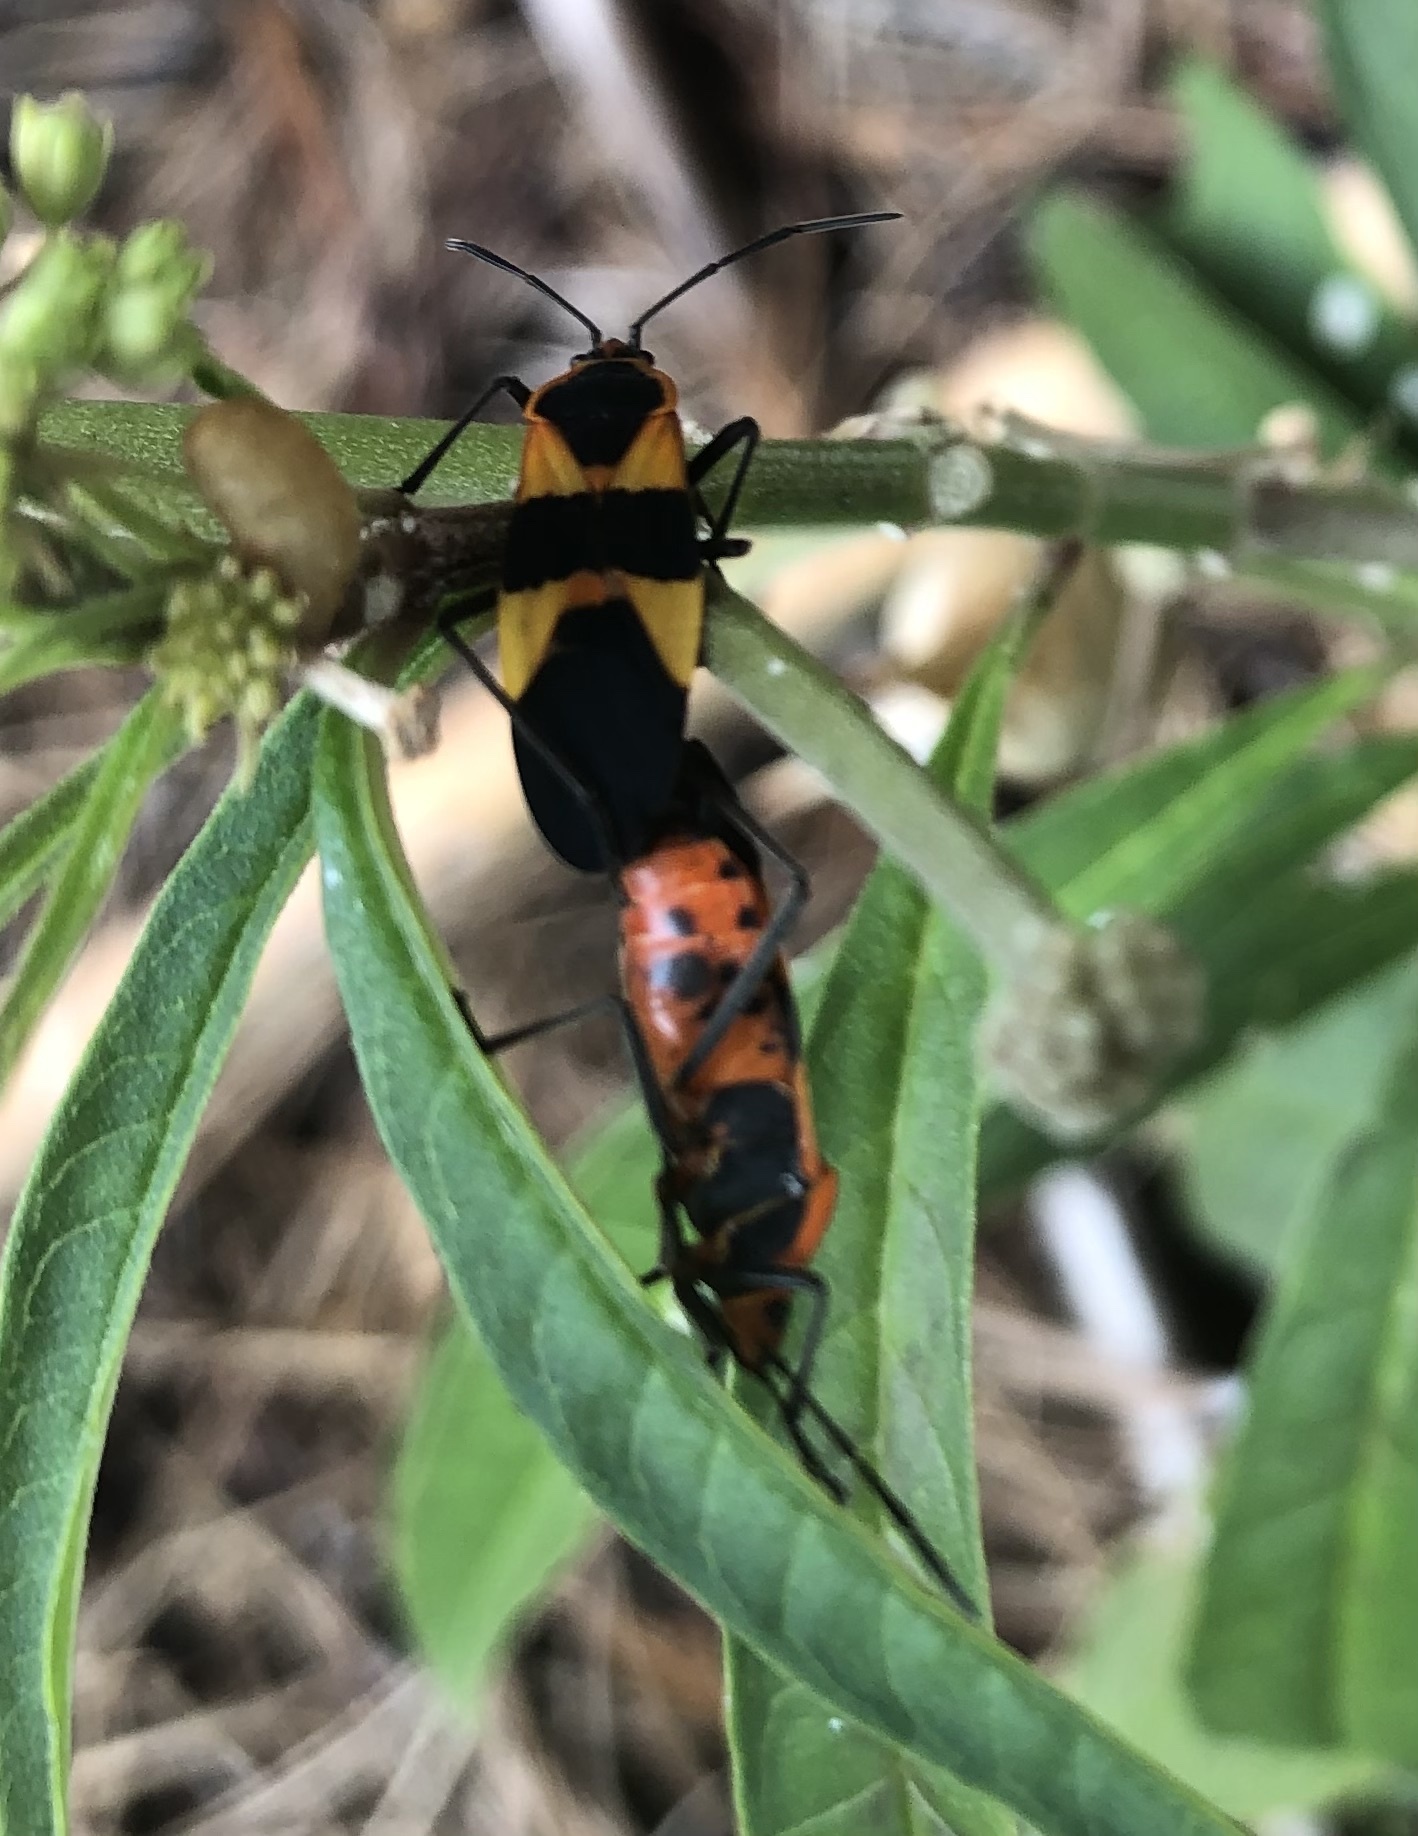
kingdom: Animalia
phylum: Arthropoda
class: Insecta
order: Hemiptera
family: Lygaeidae
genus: Oncopeltus
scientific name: Oncopeltus fasciatus
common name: Large milkweed bug
